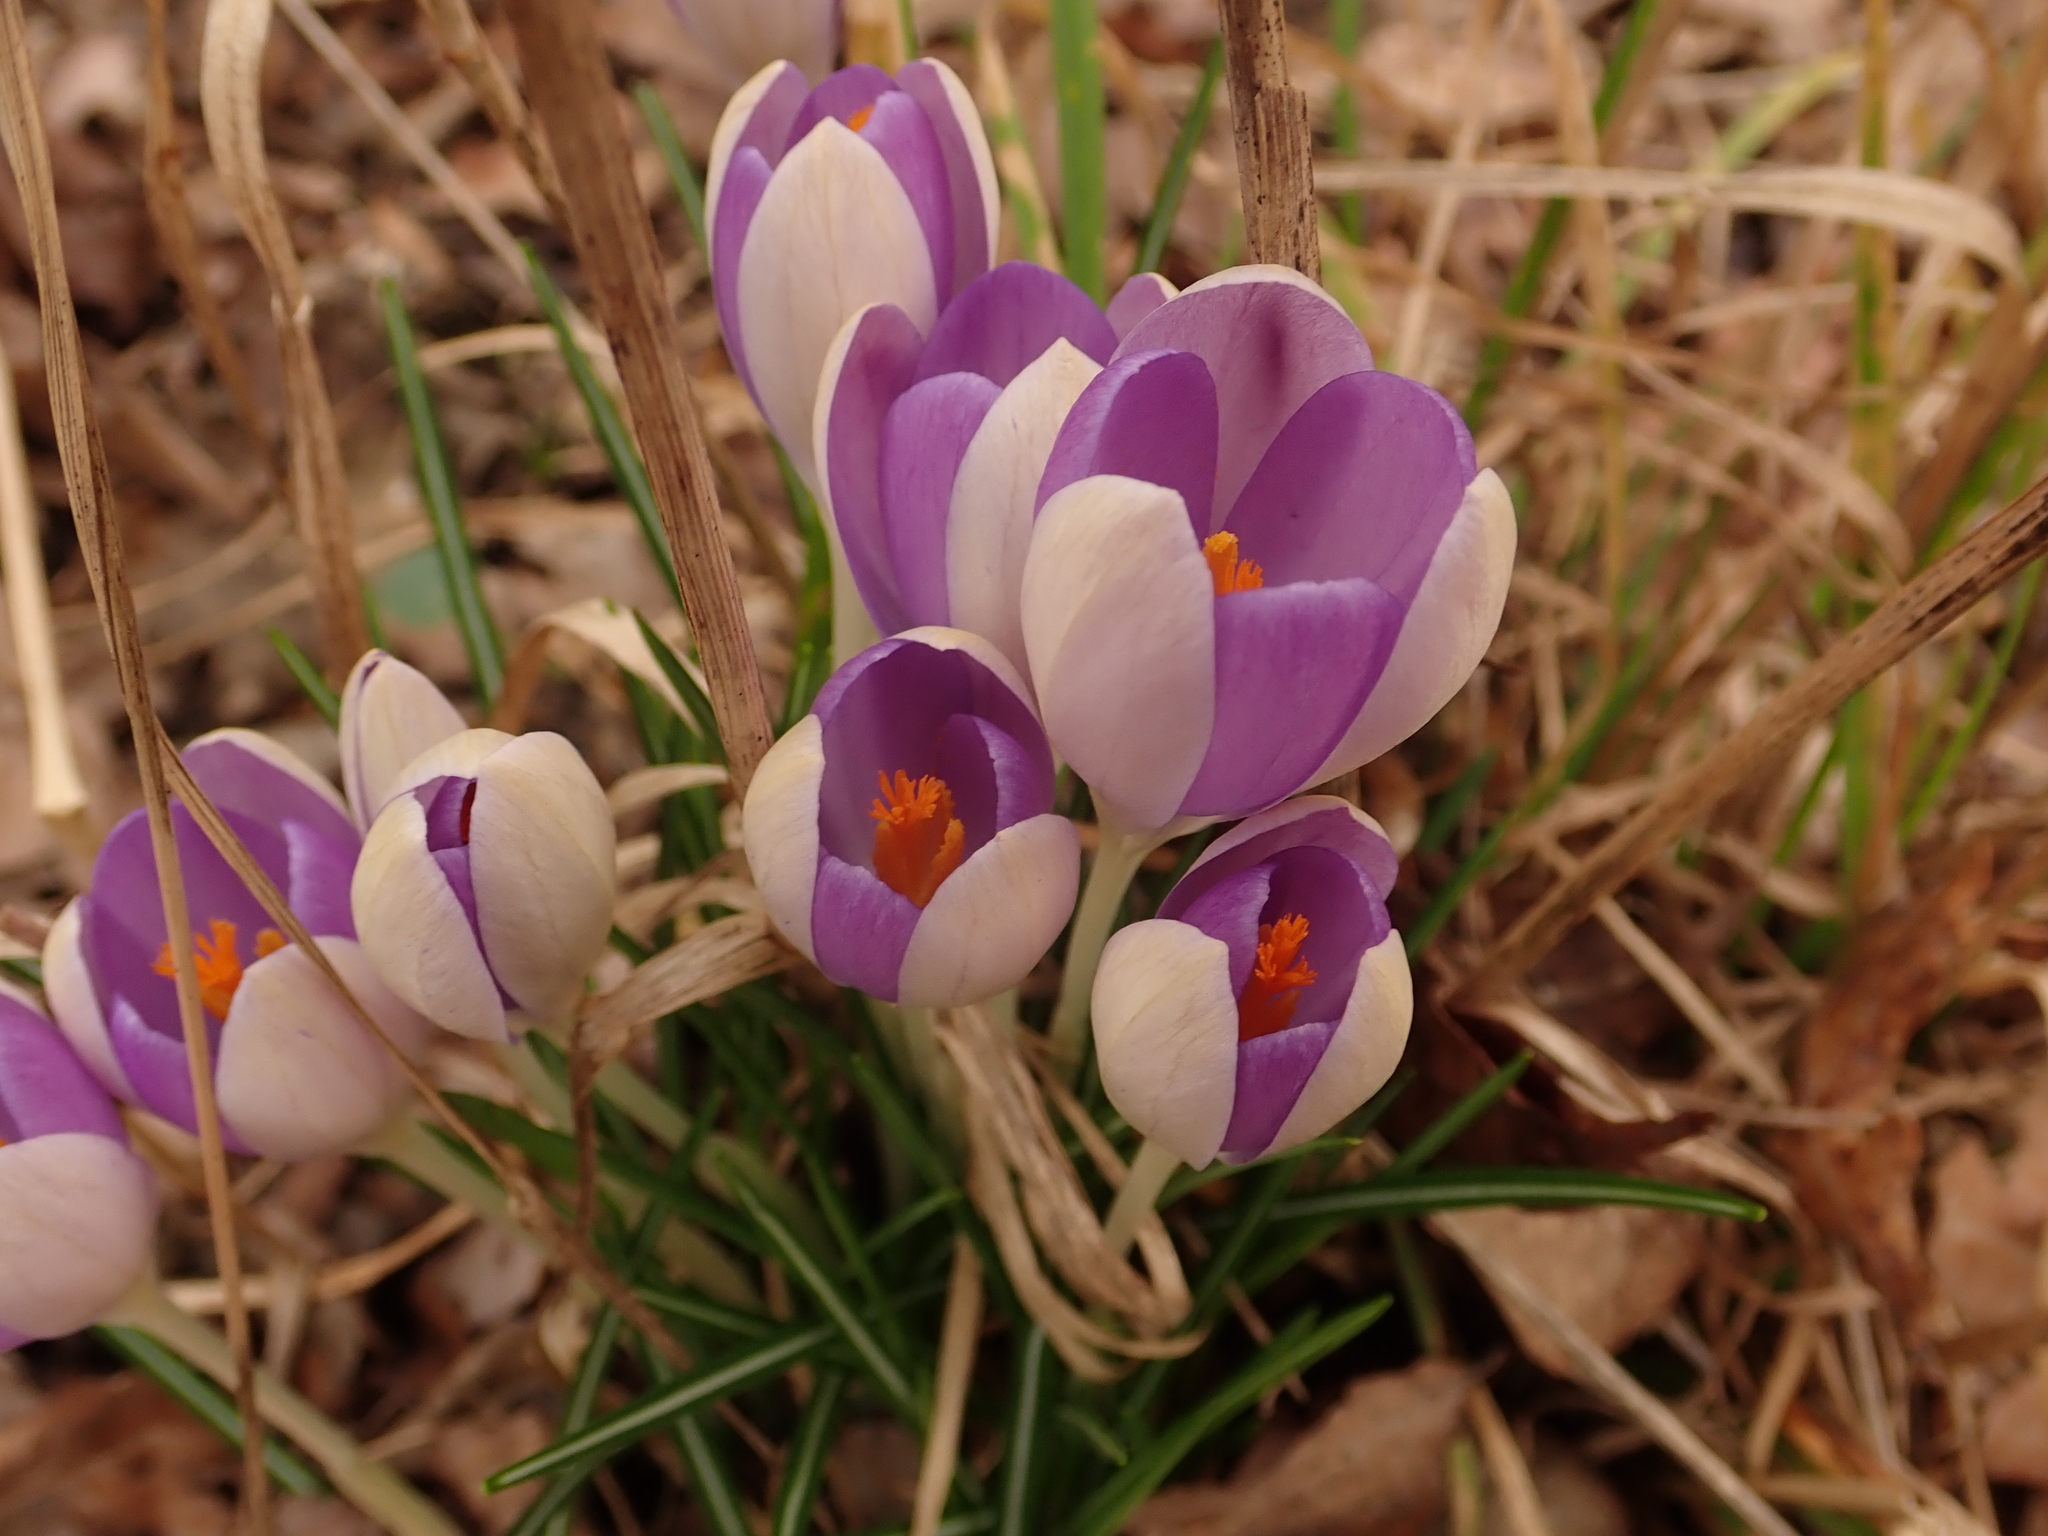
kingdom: Plantae
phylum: Tracheophyta
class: Liliopsida
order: Asparagales
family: Iridaceae
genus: Crocus
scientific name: Crocus tommasinianus
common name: Early crocus
